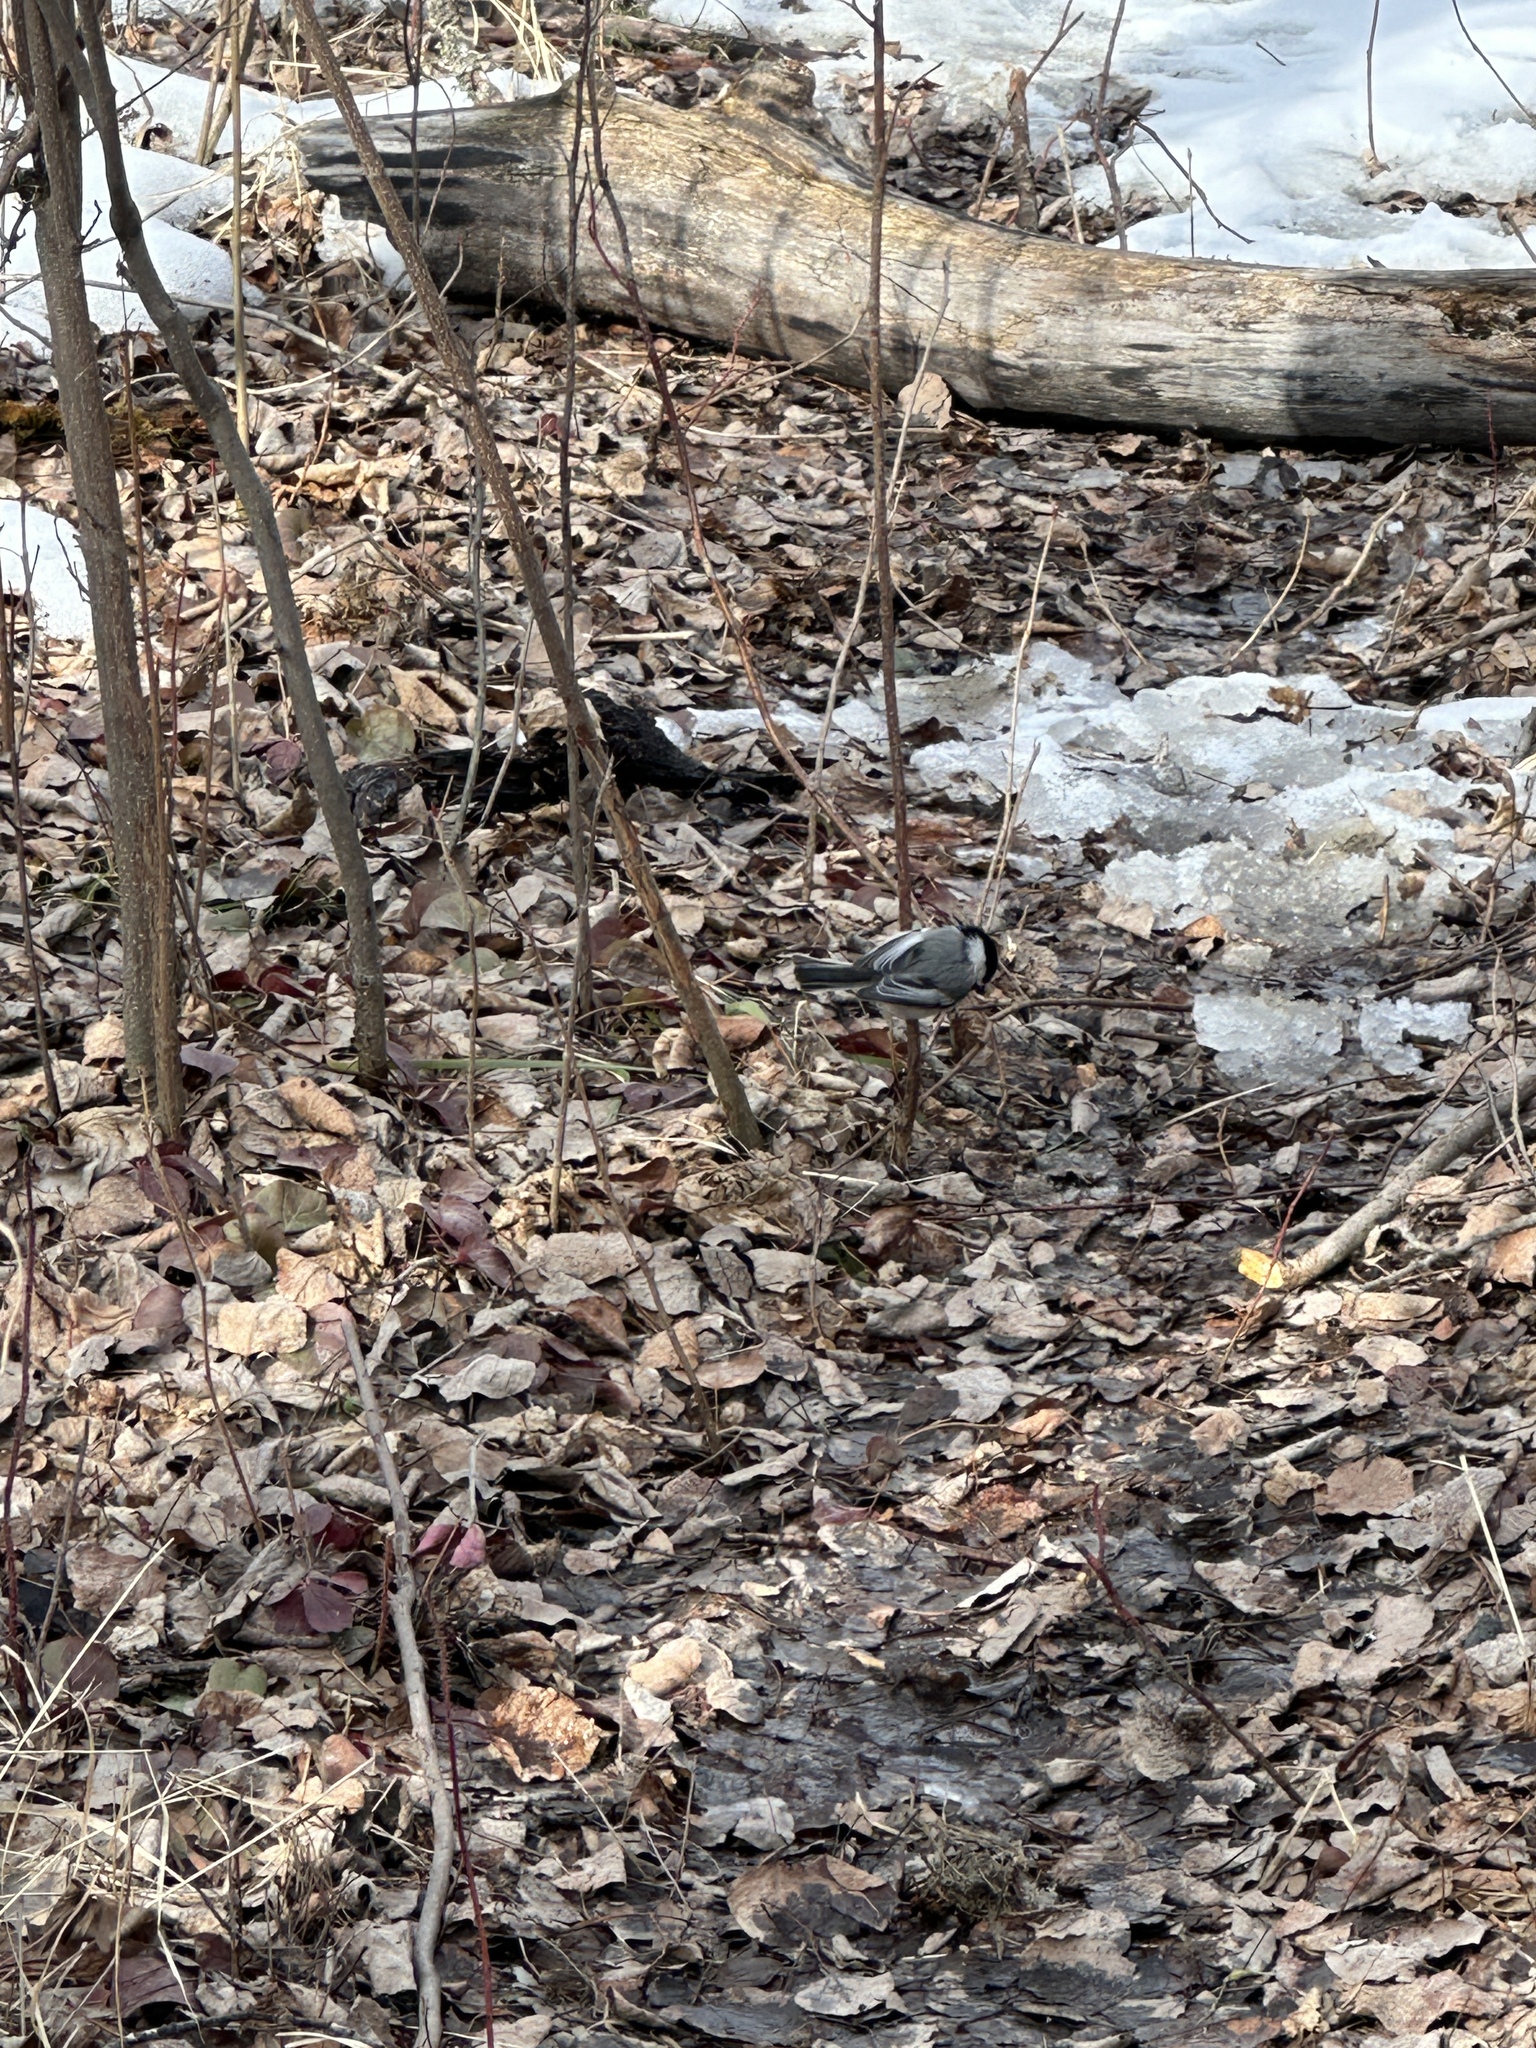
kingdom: Animalia
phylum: Chordata
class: Aves
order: Passeriformes
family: Paridae
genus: Poecile
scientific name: Poecile atricapillus
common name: Black-capped chickadee
